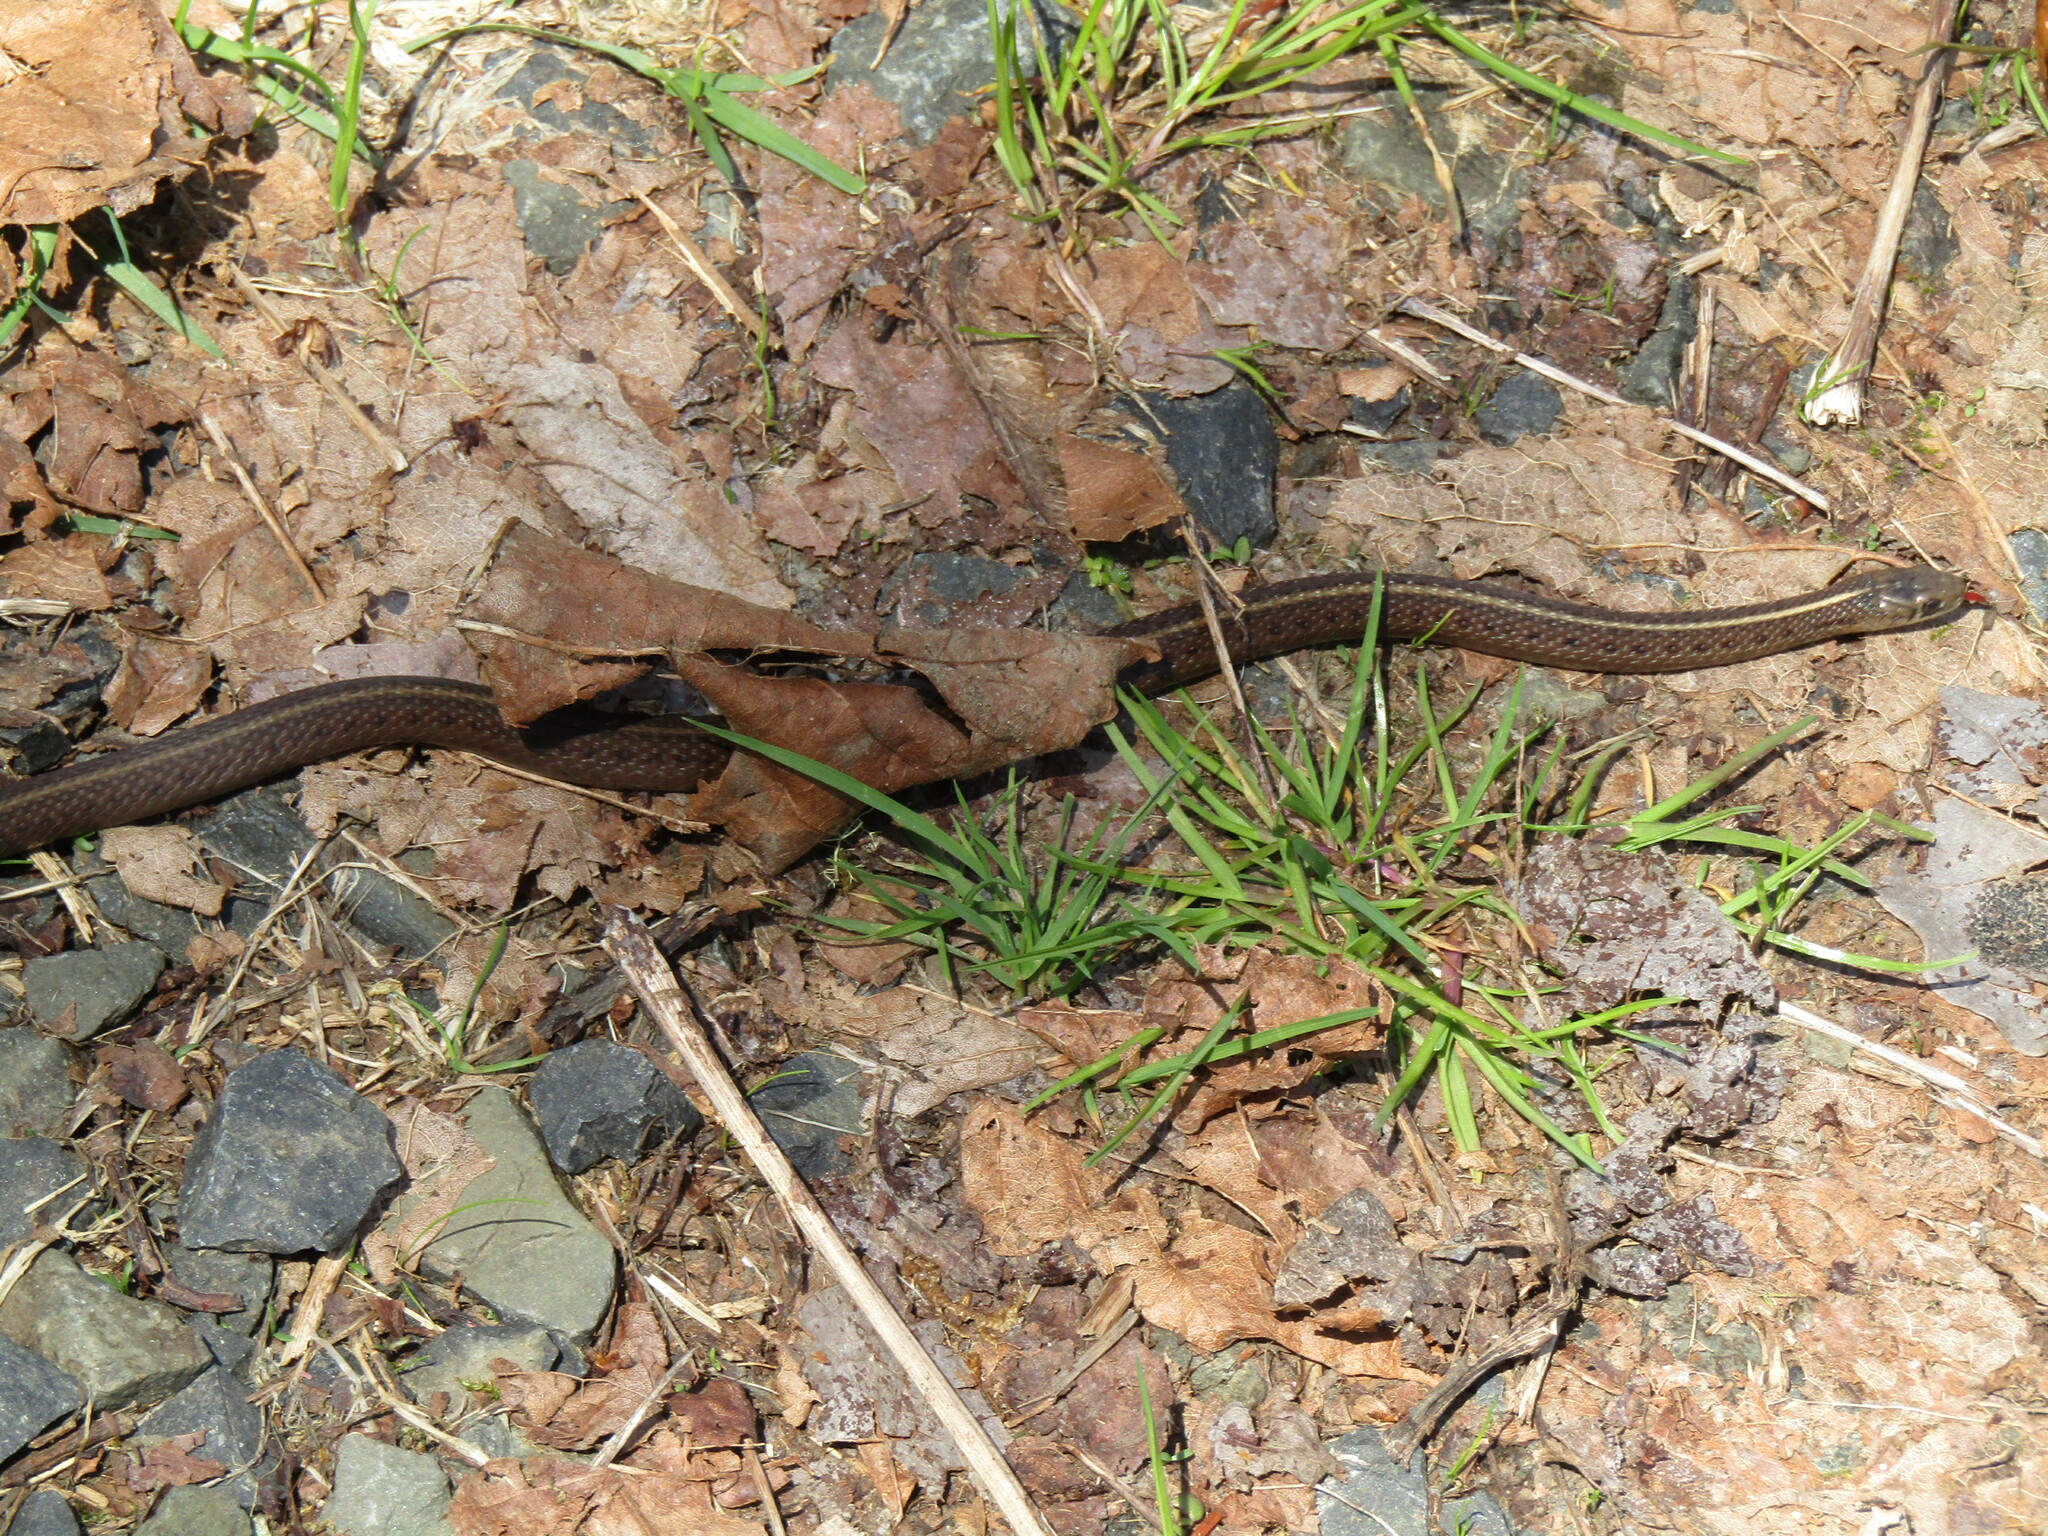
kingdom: Animalia
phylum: Chordata
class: Squamata
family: Colubridae
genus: Thamnophis
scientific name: Thamnophis ordinoides
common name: Northwestern garter snake
